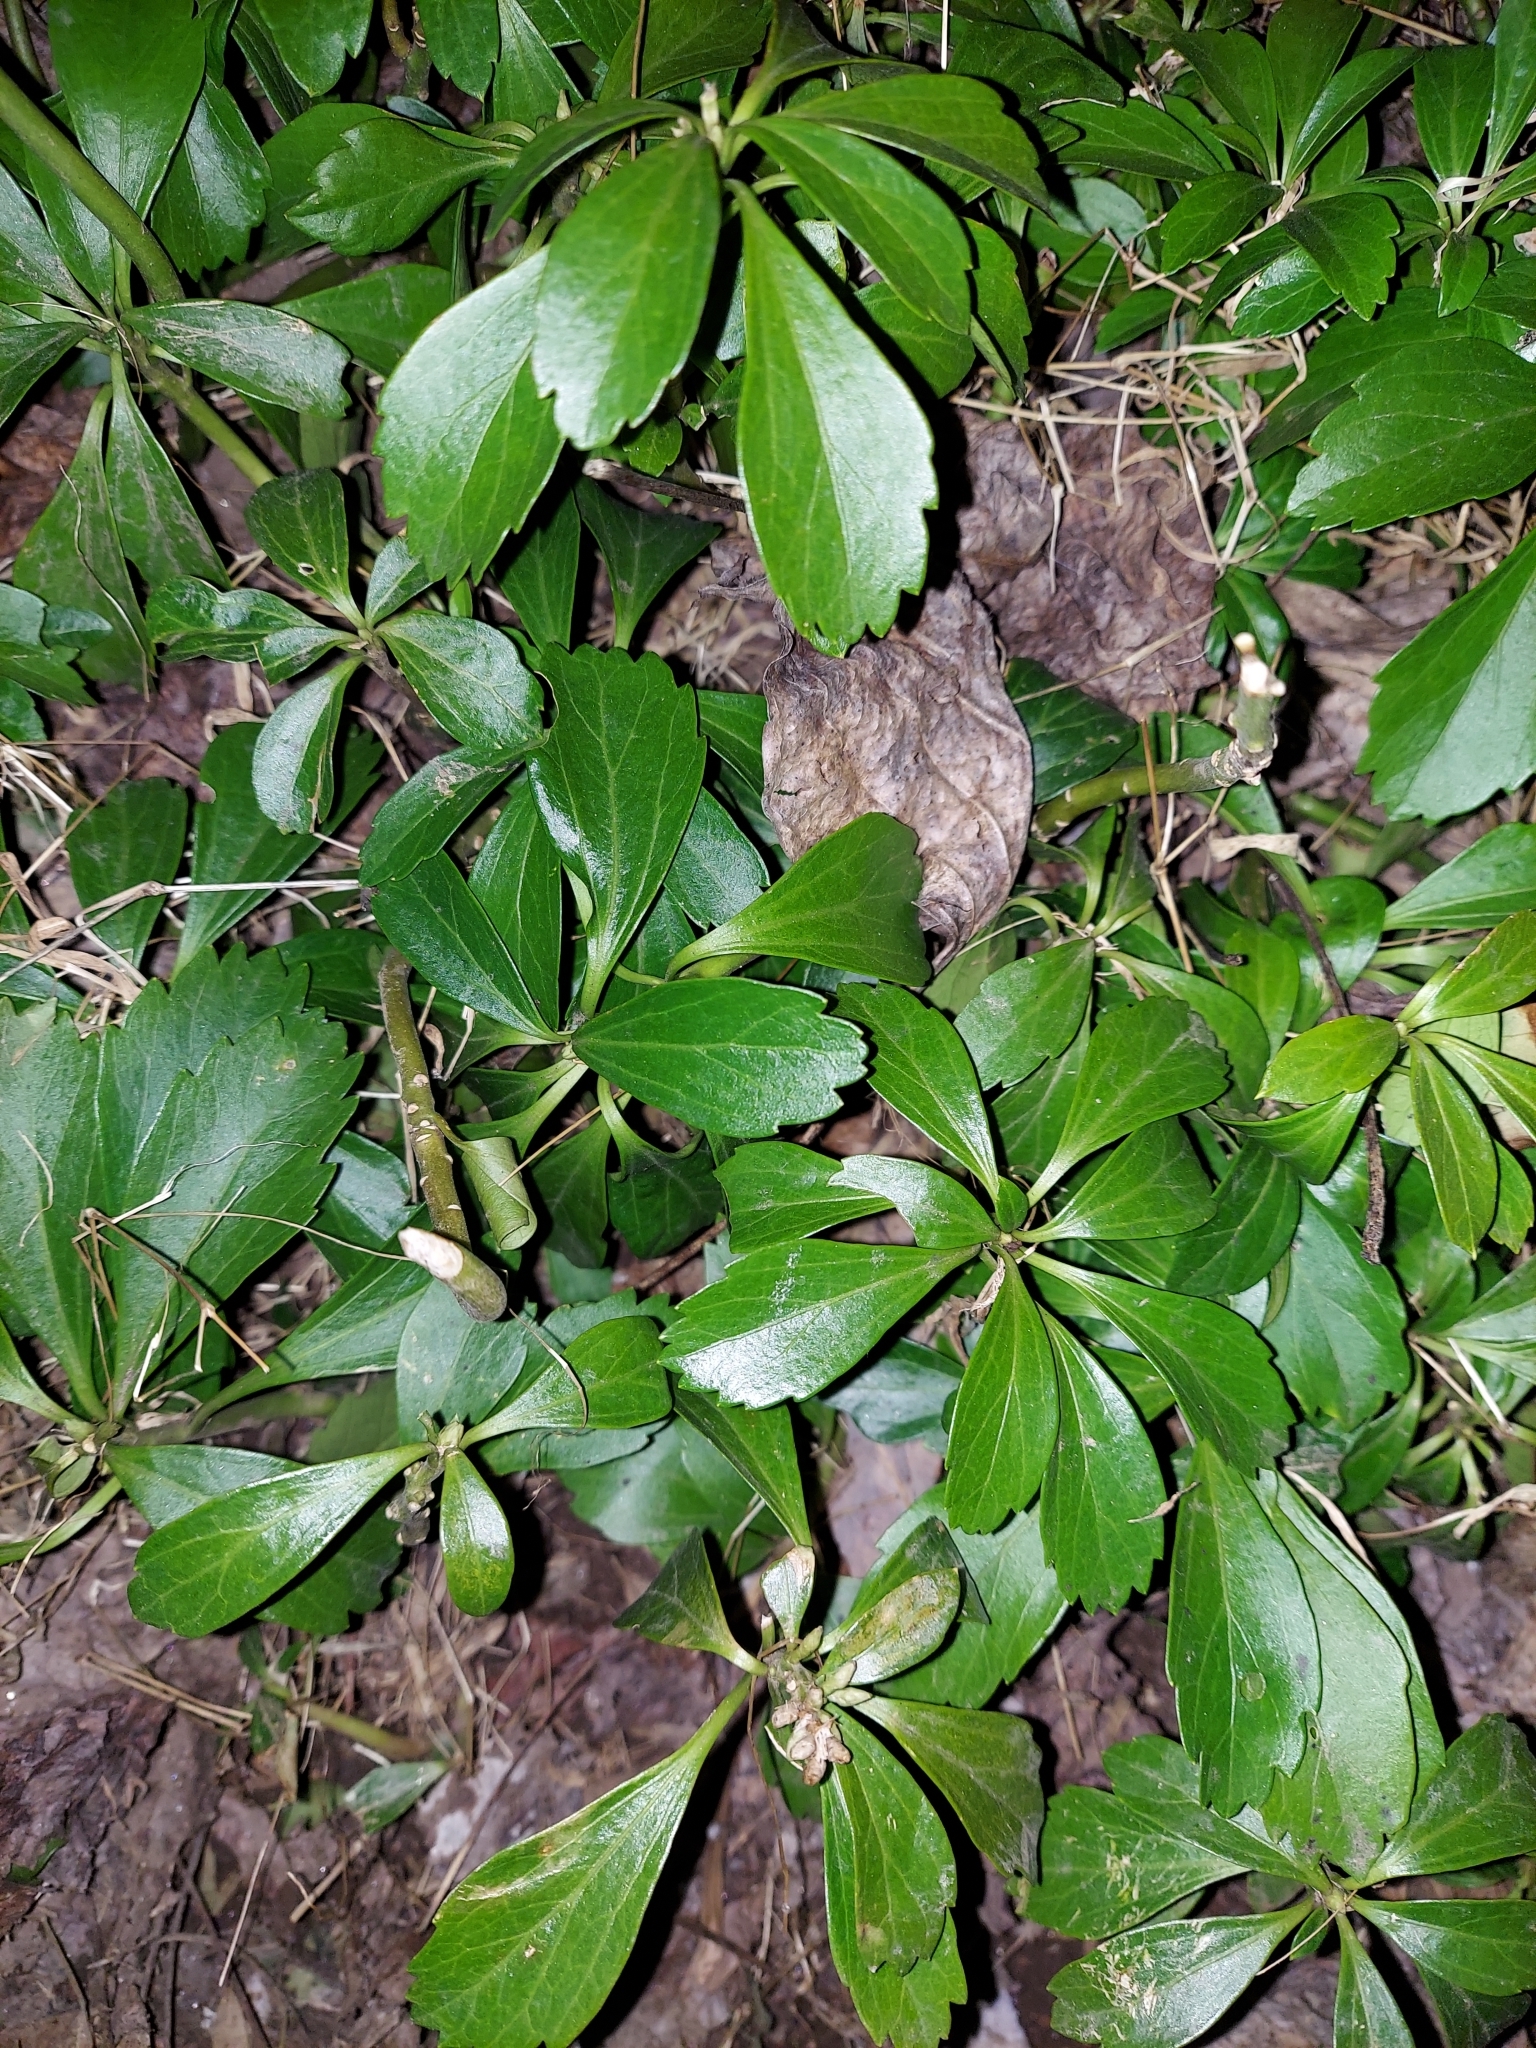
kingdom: Plantae
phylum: Tracheophyta
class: Magnoliopsida
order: Buxales
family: Buxaceae
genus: Pachysandra
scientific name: Pachysandra terminalis
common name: Japanese pachysandra
